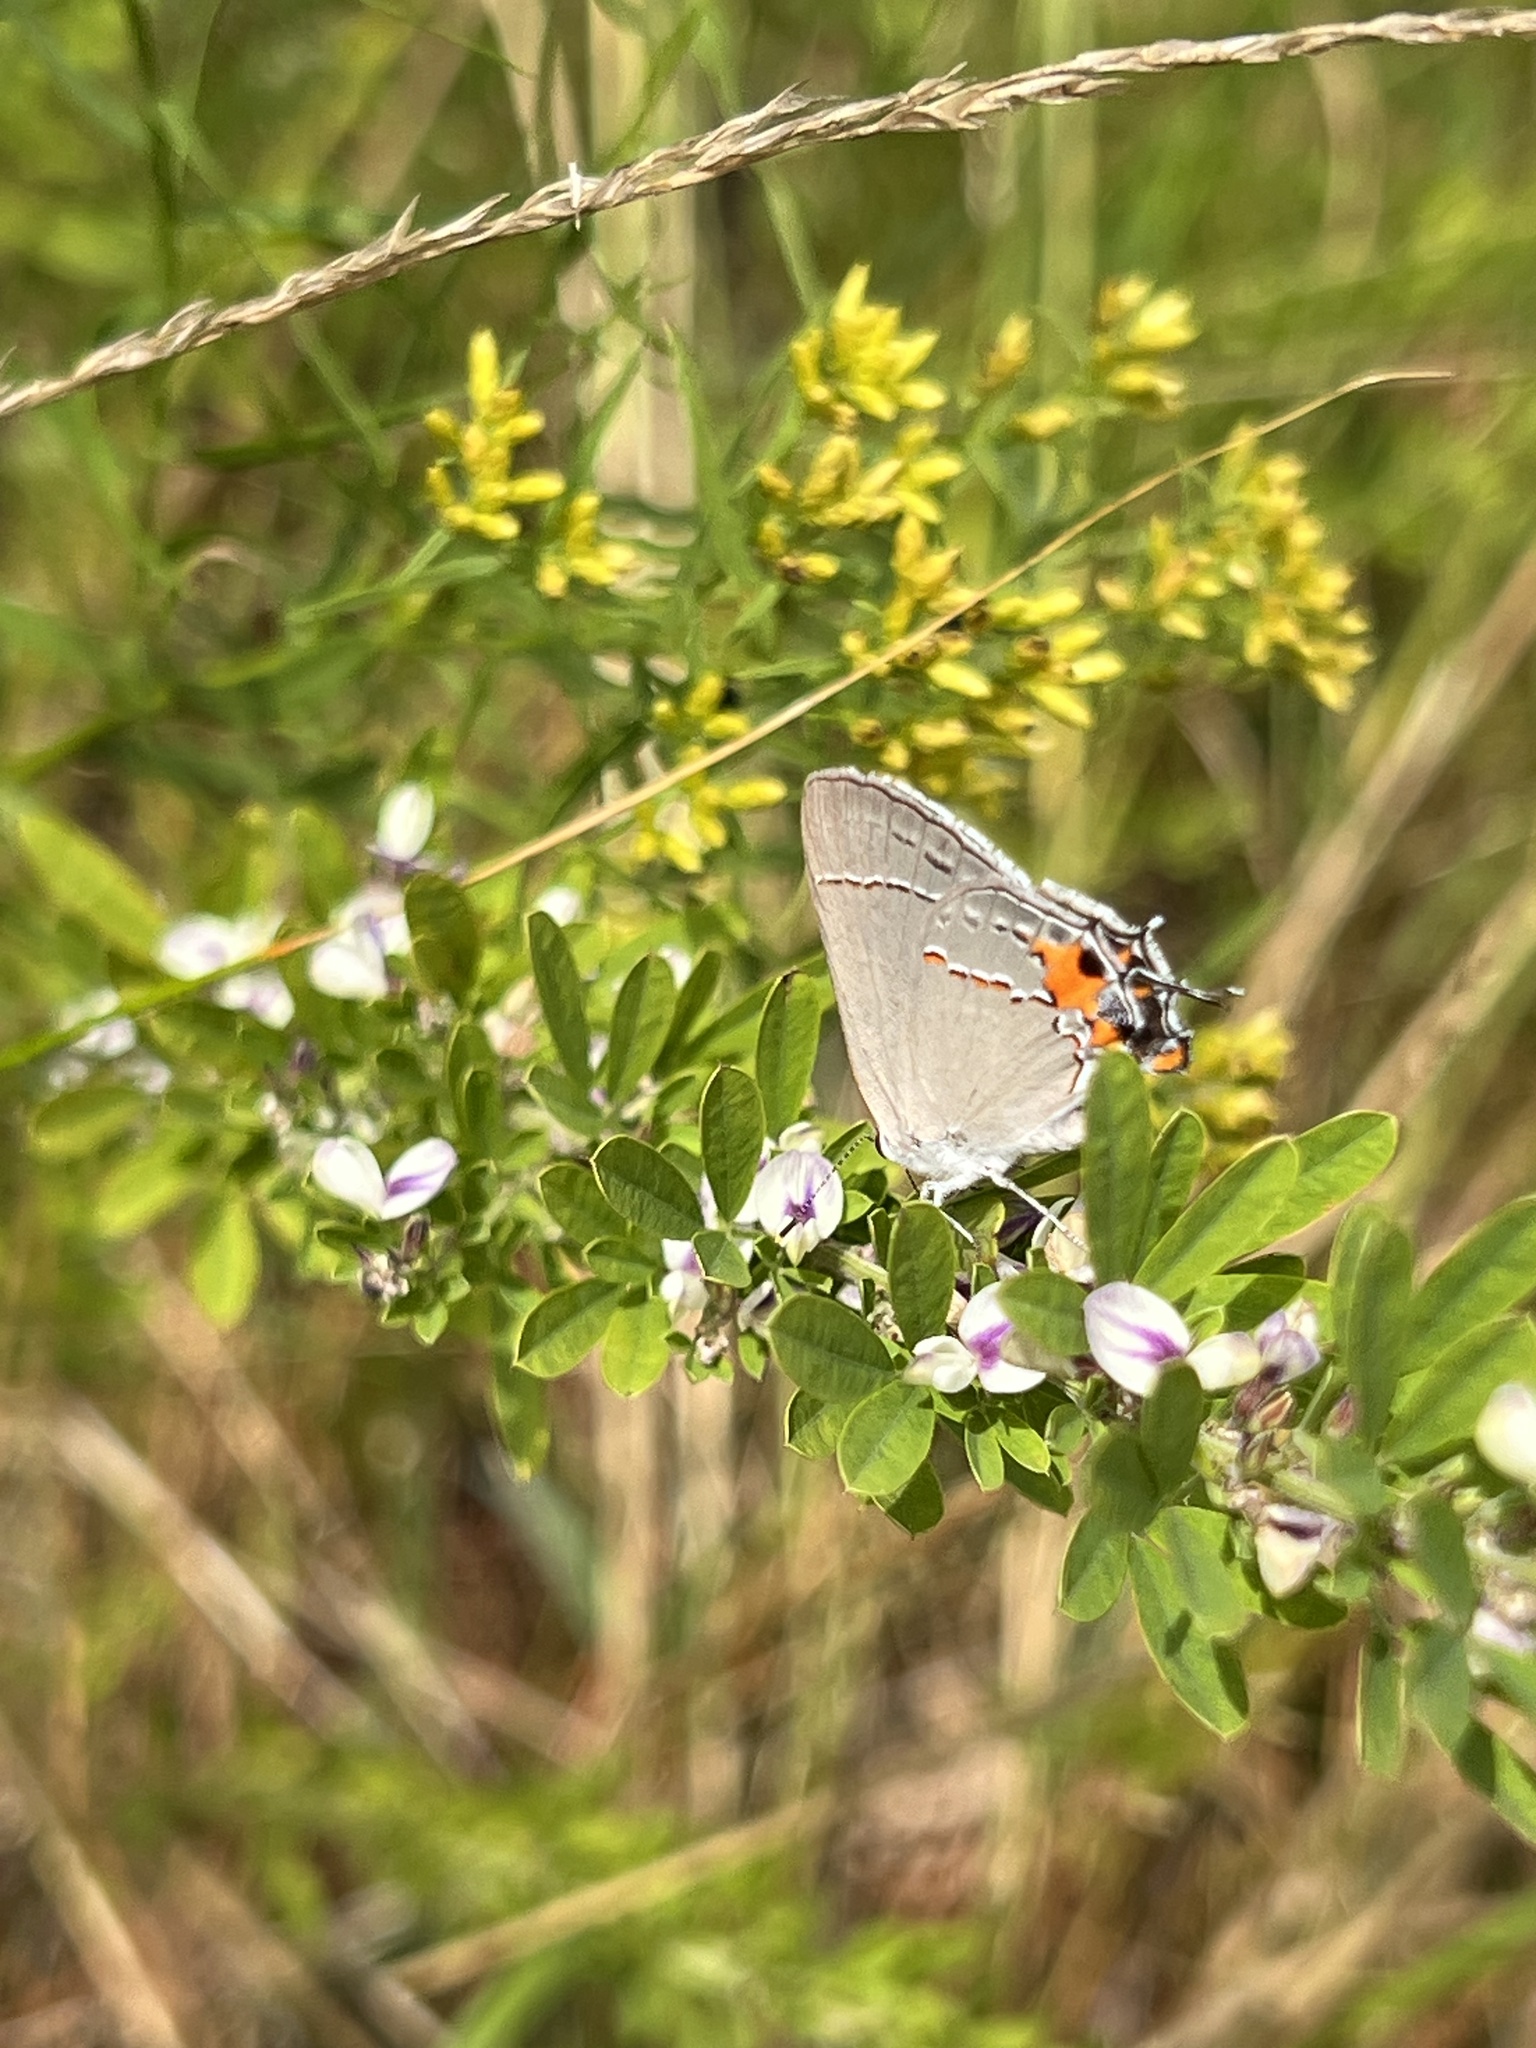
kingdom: Animalia
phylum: Arthropoda
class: Insecta
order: Lepidoptera
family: Lycaenidae
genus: Strymon
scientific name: Strymon melinus
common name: Gray hairstreak
